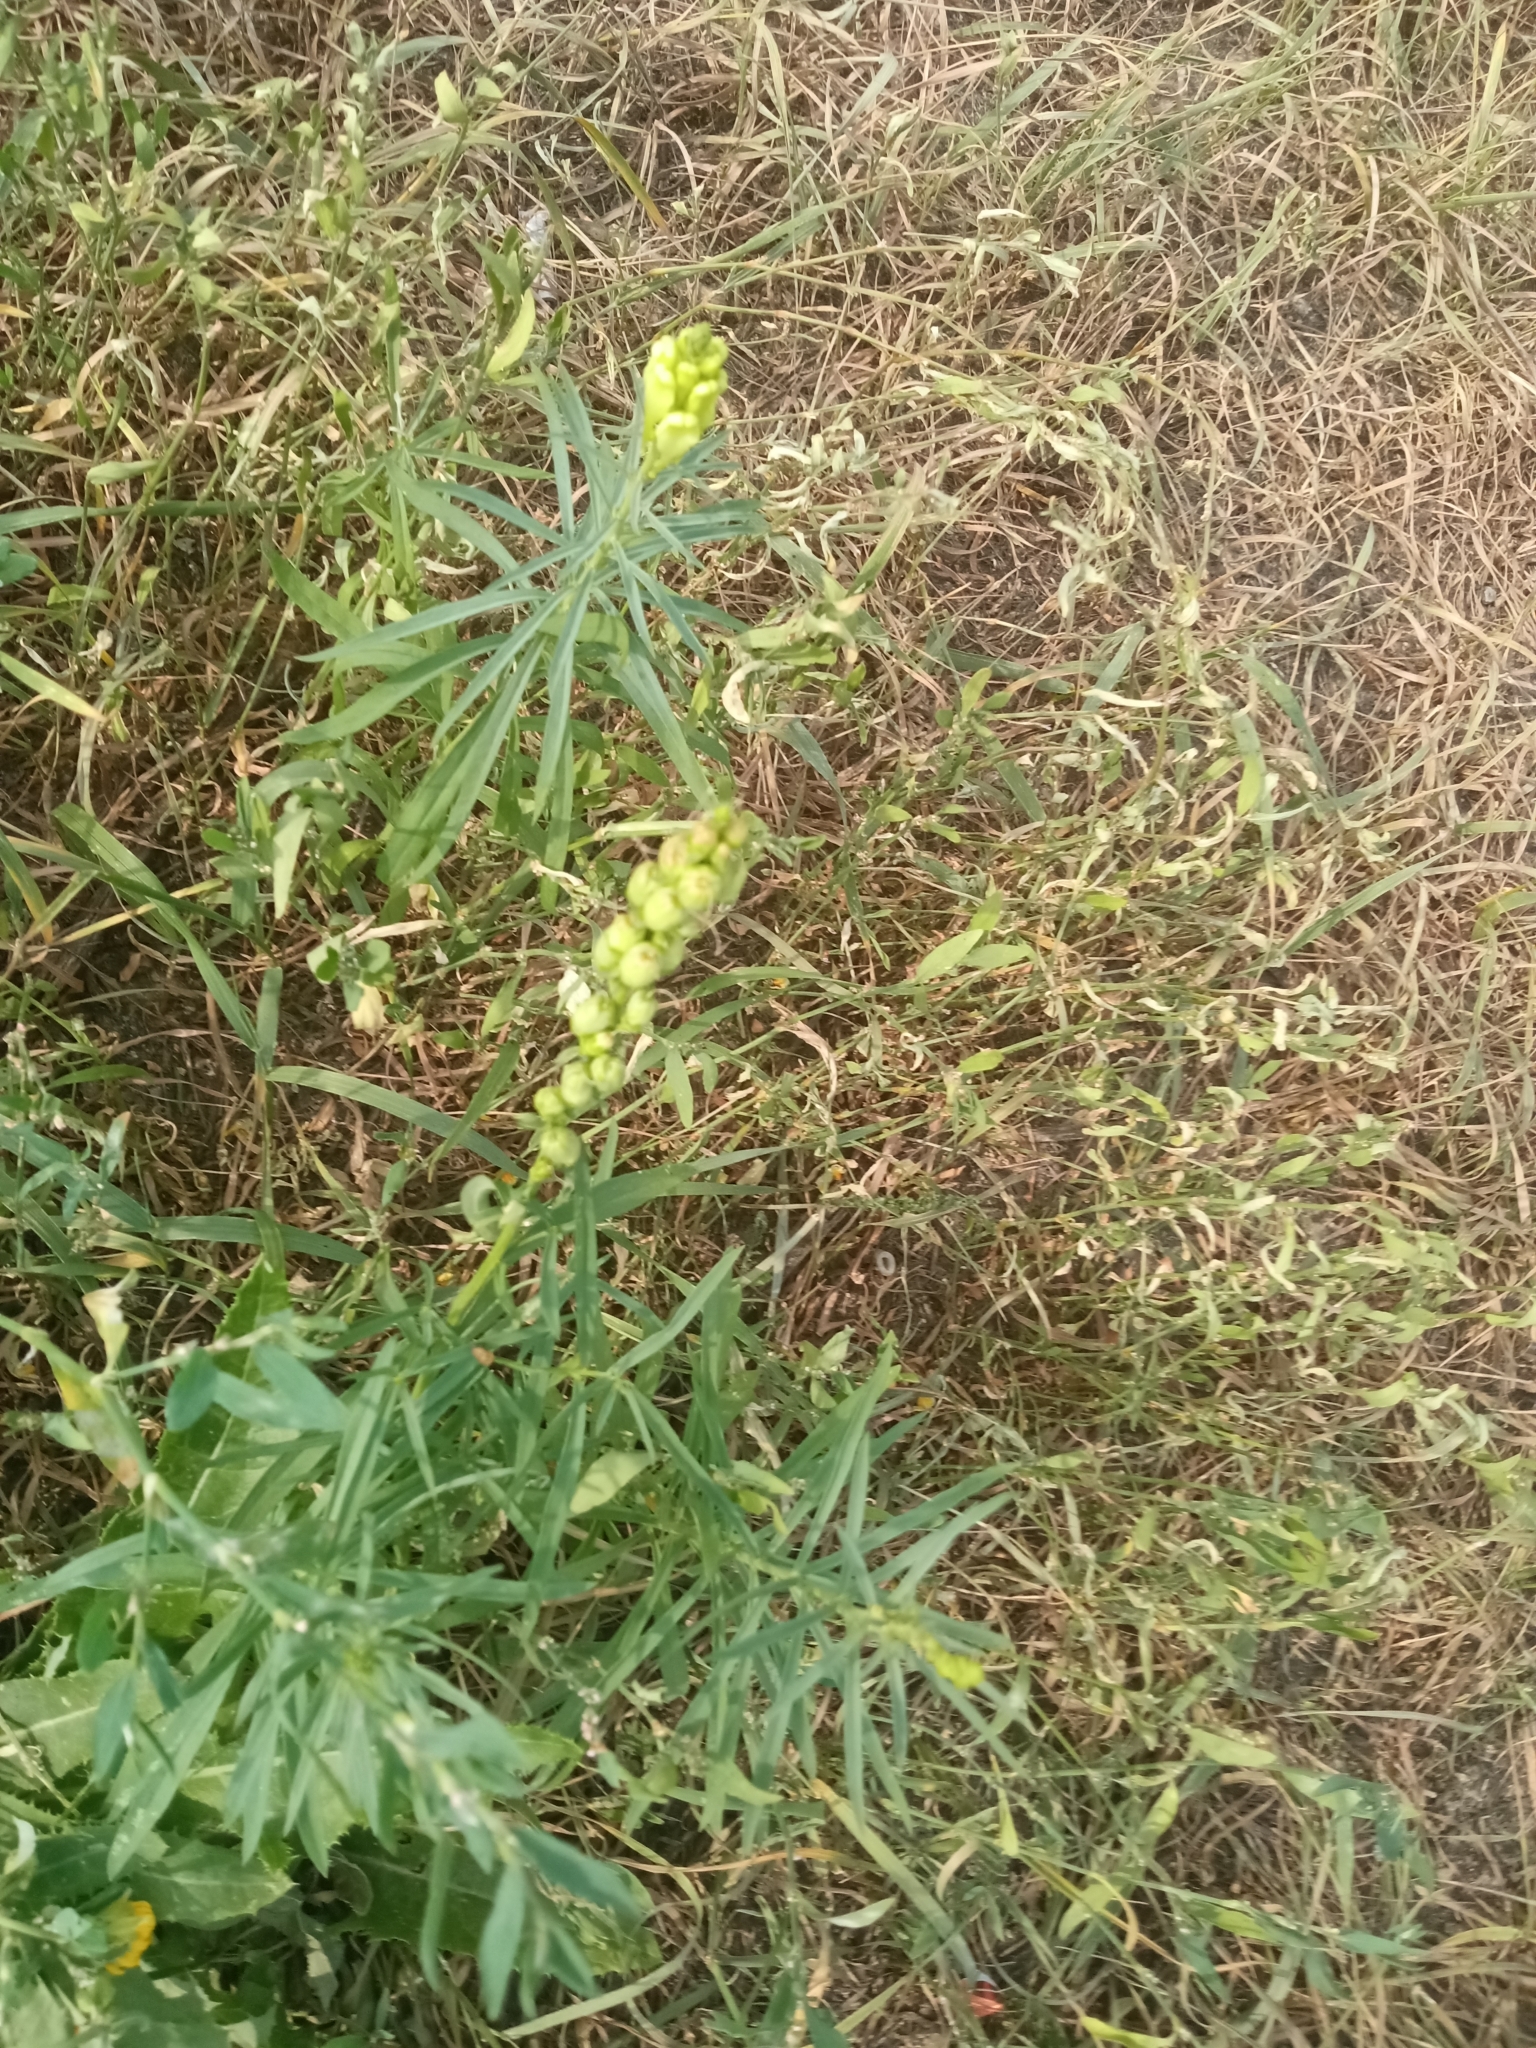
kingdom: Plantae
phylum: Tracheophyta
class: Magnoliopsida
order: Lamiales
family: Plantaginaceae
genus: Linaria
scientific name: Linaria vulgaris
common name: Butter and eggs
